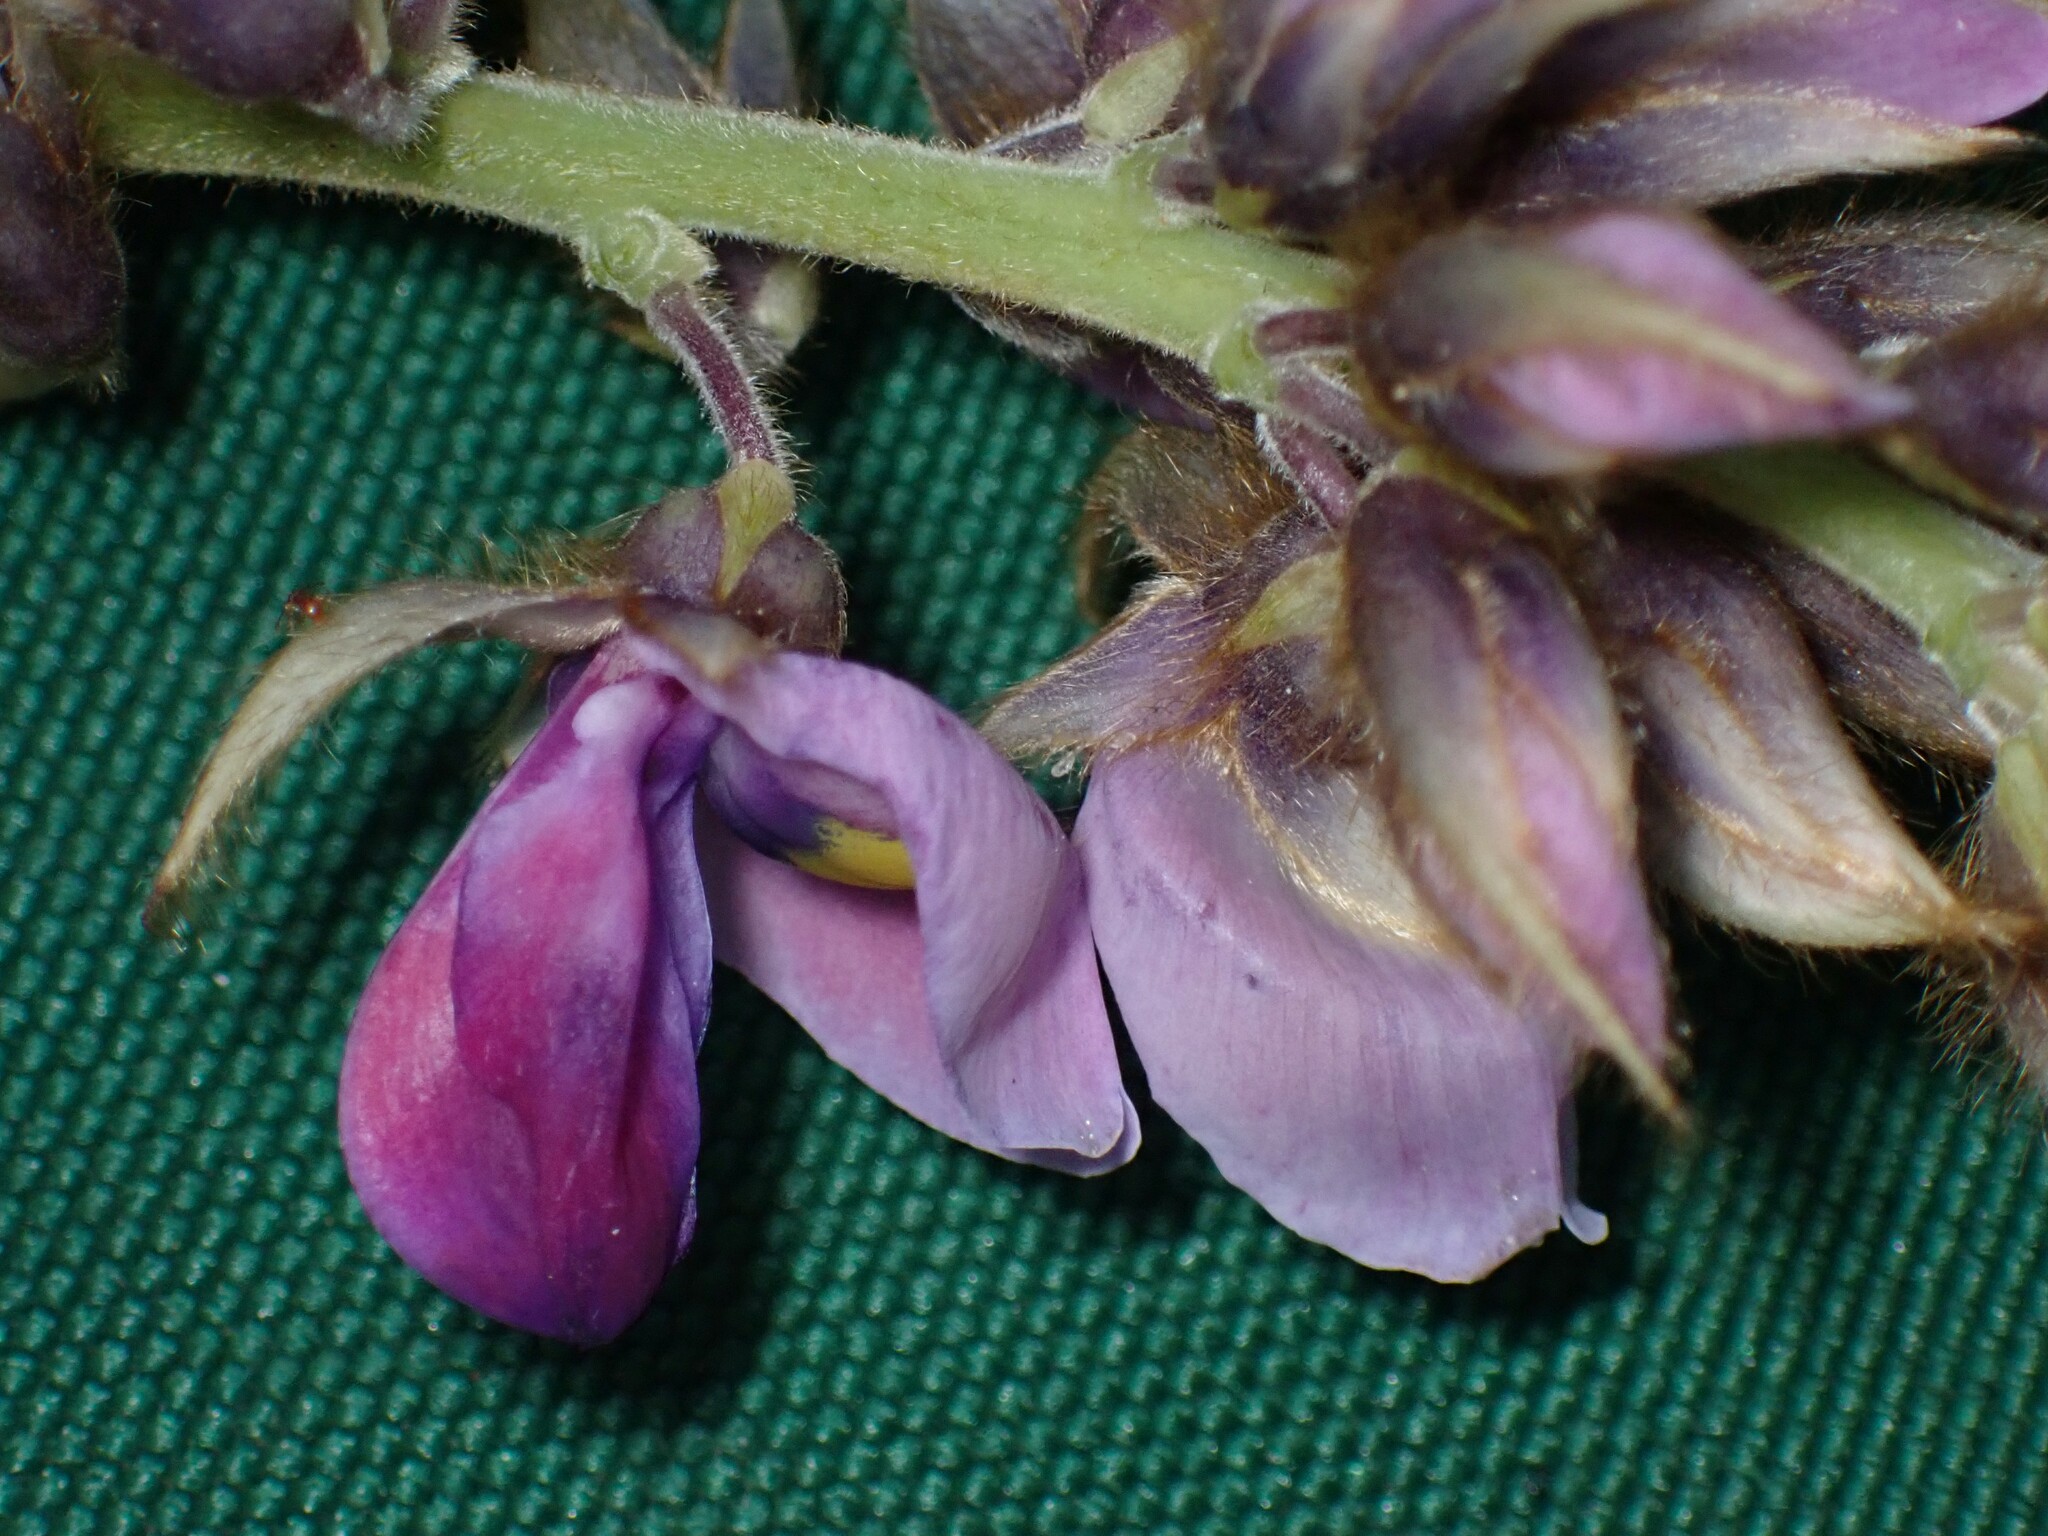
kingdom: Plantae
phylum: Tracheophyta
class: Magnoliopsida
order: Fabales
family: Fabaceae
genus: Pueraria
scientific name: Pueraria montana
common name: Kudzu
